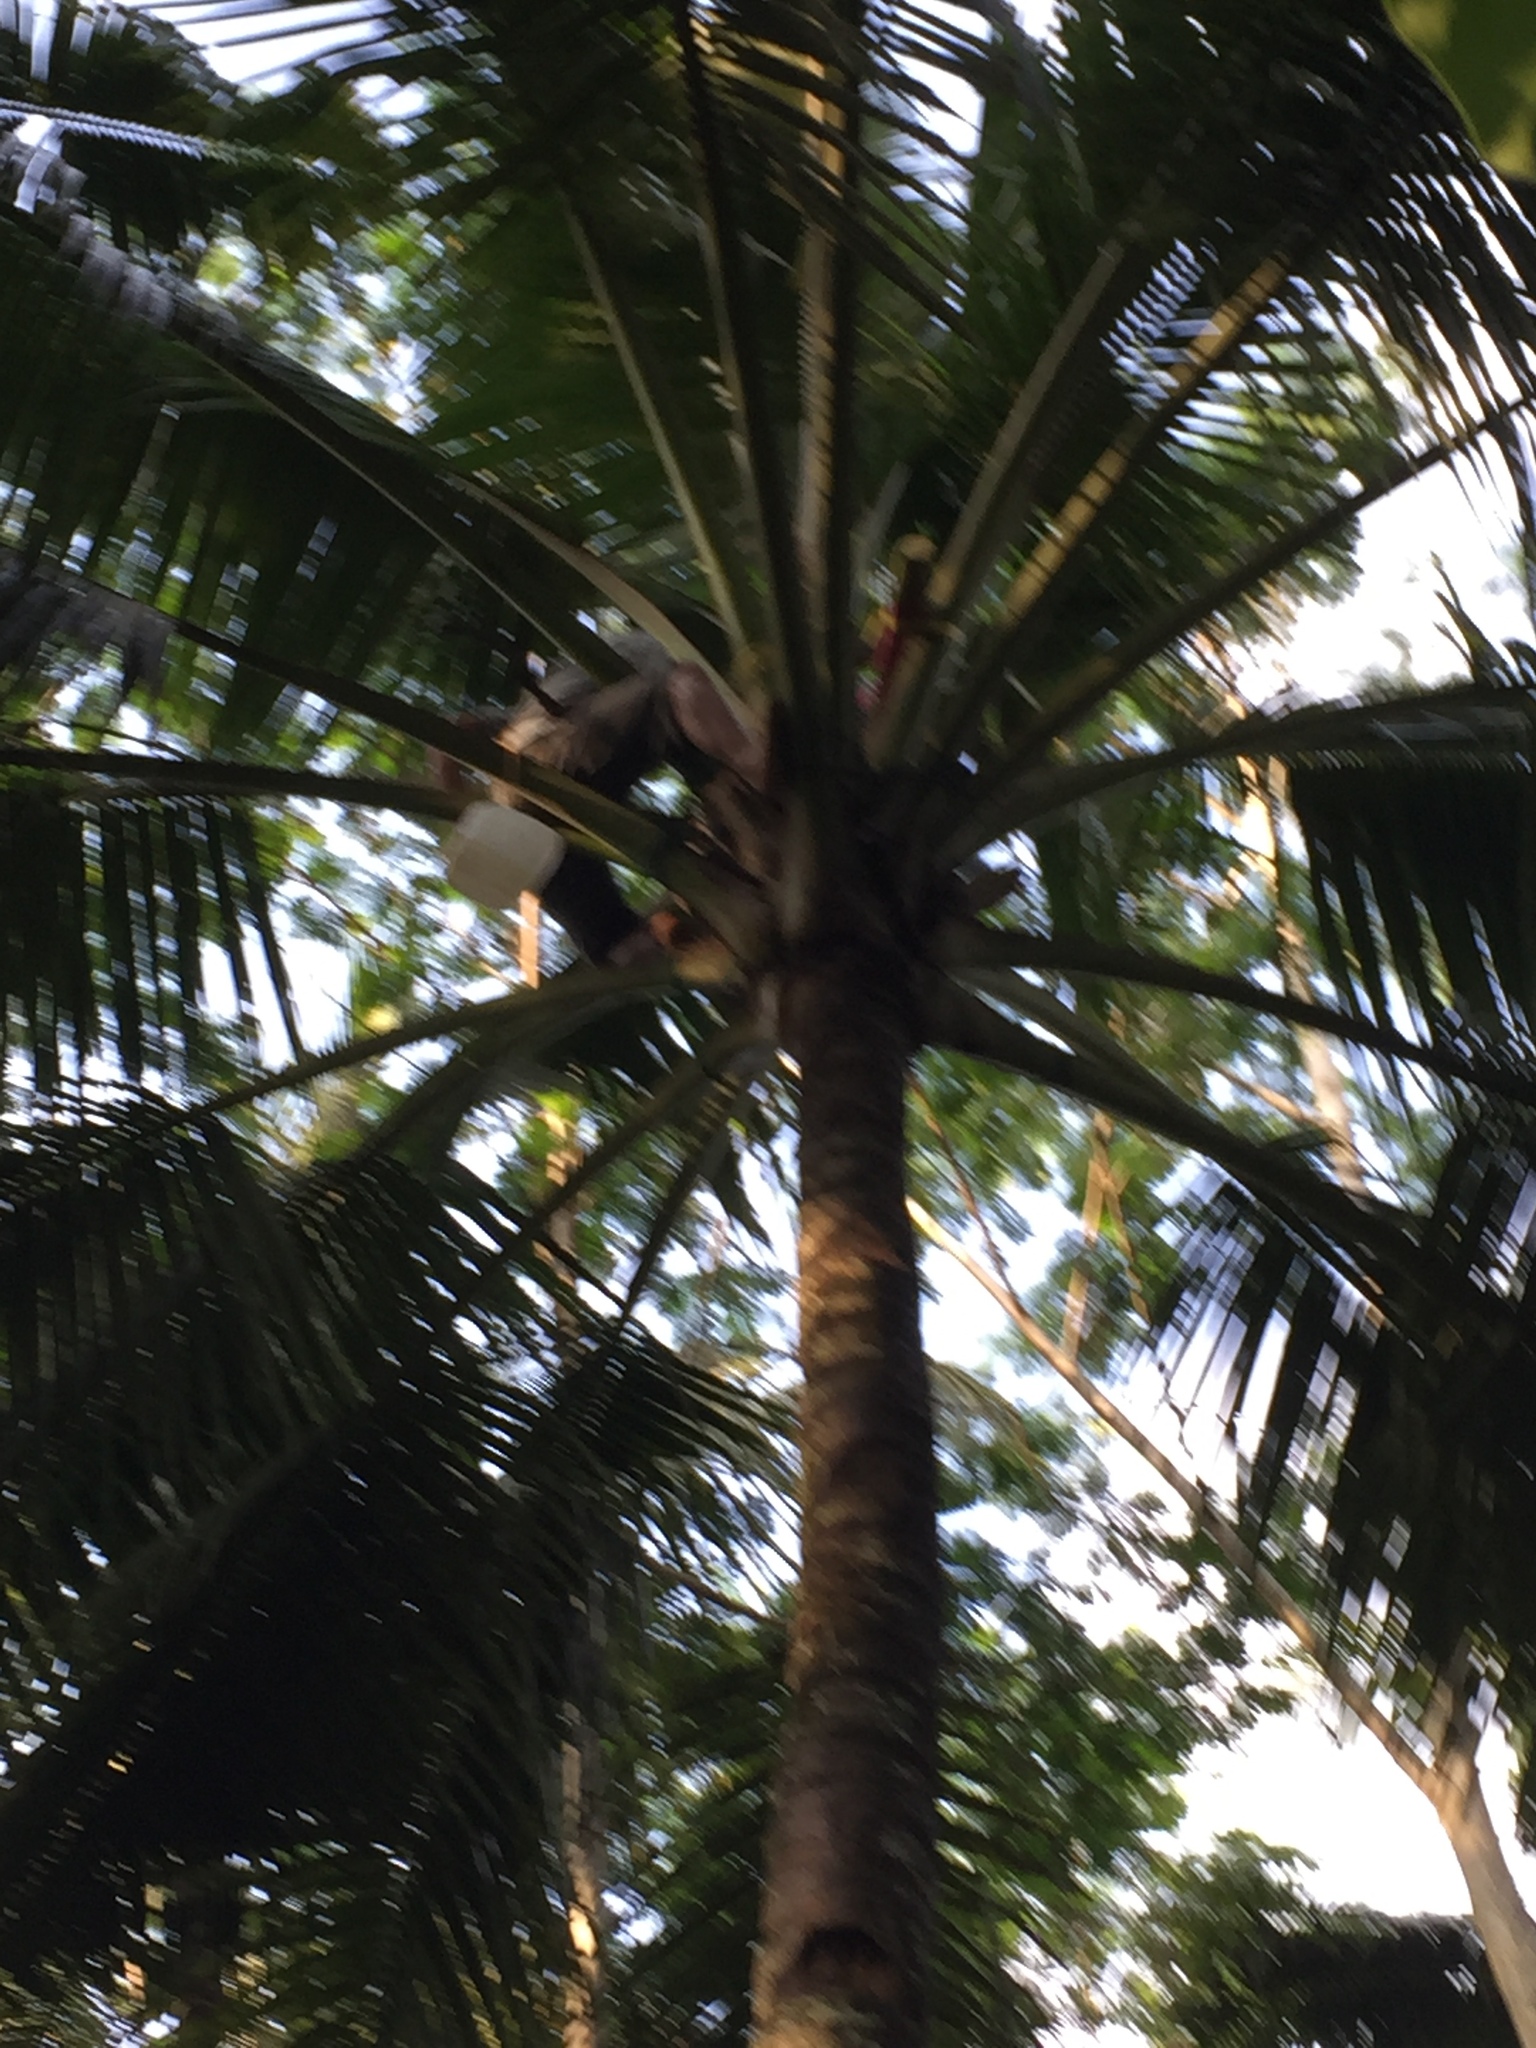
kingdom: Plantae
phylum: Tracheophyta
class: Liliopsida
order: Arecales
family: Arecaceae
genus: Cocos
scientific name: Cocos nucifera
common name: Coconut palm
